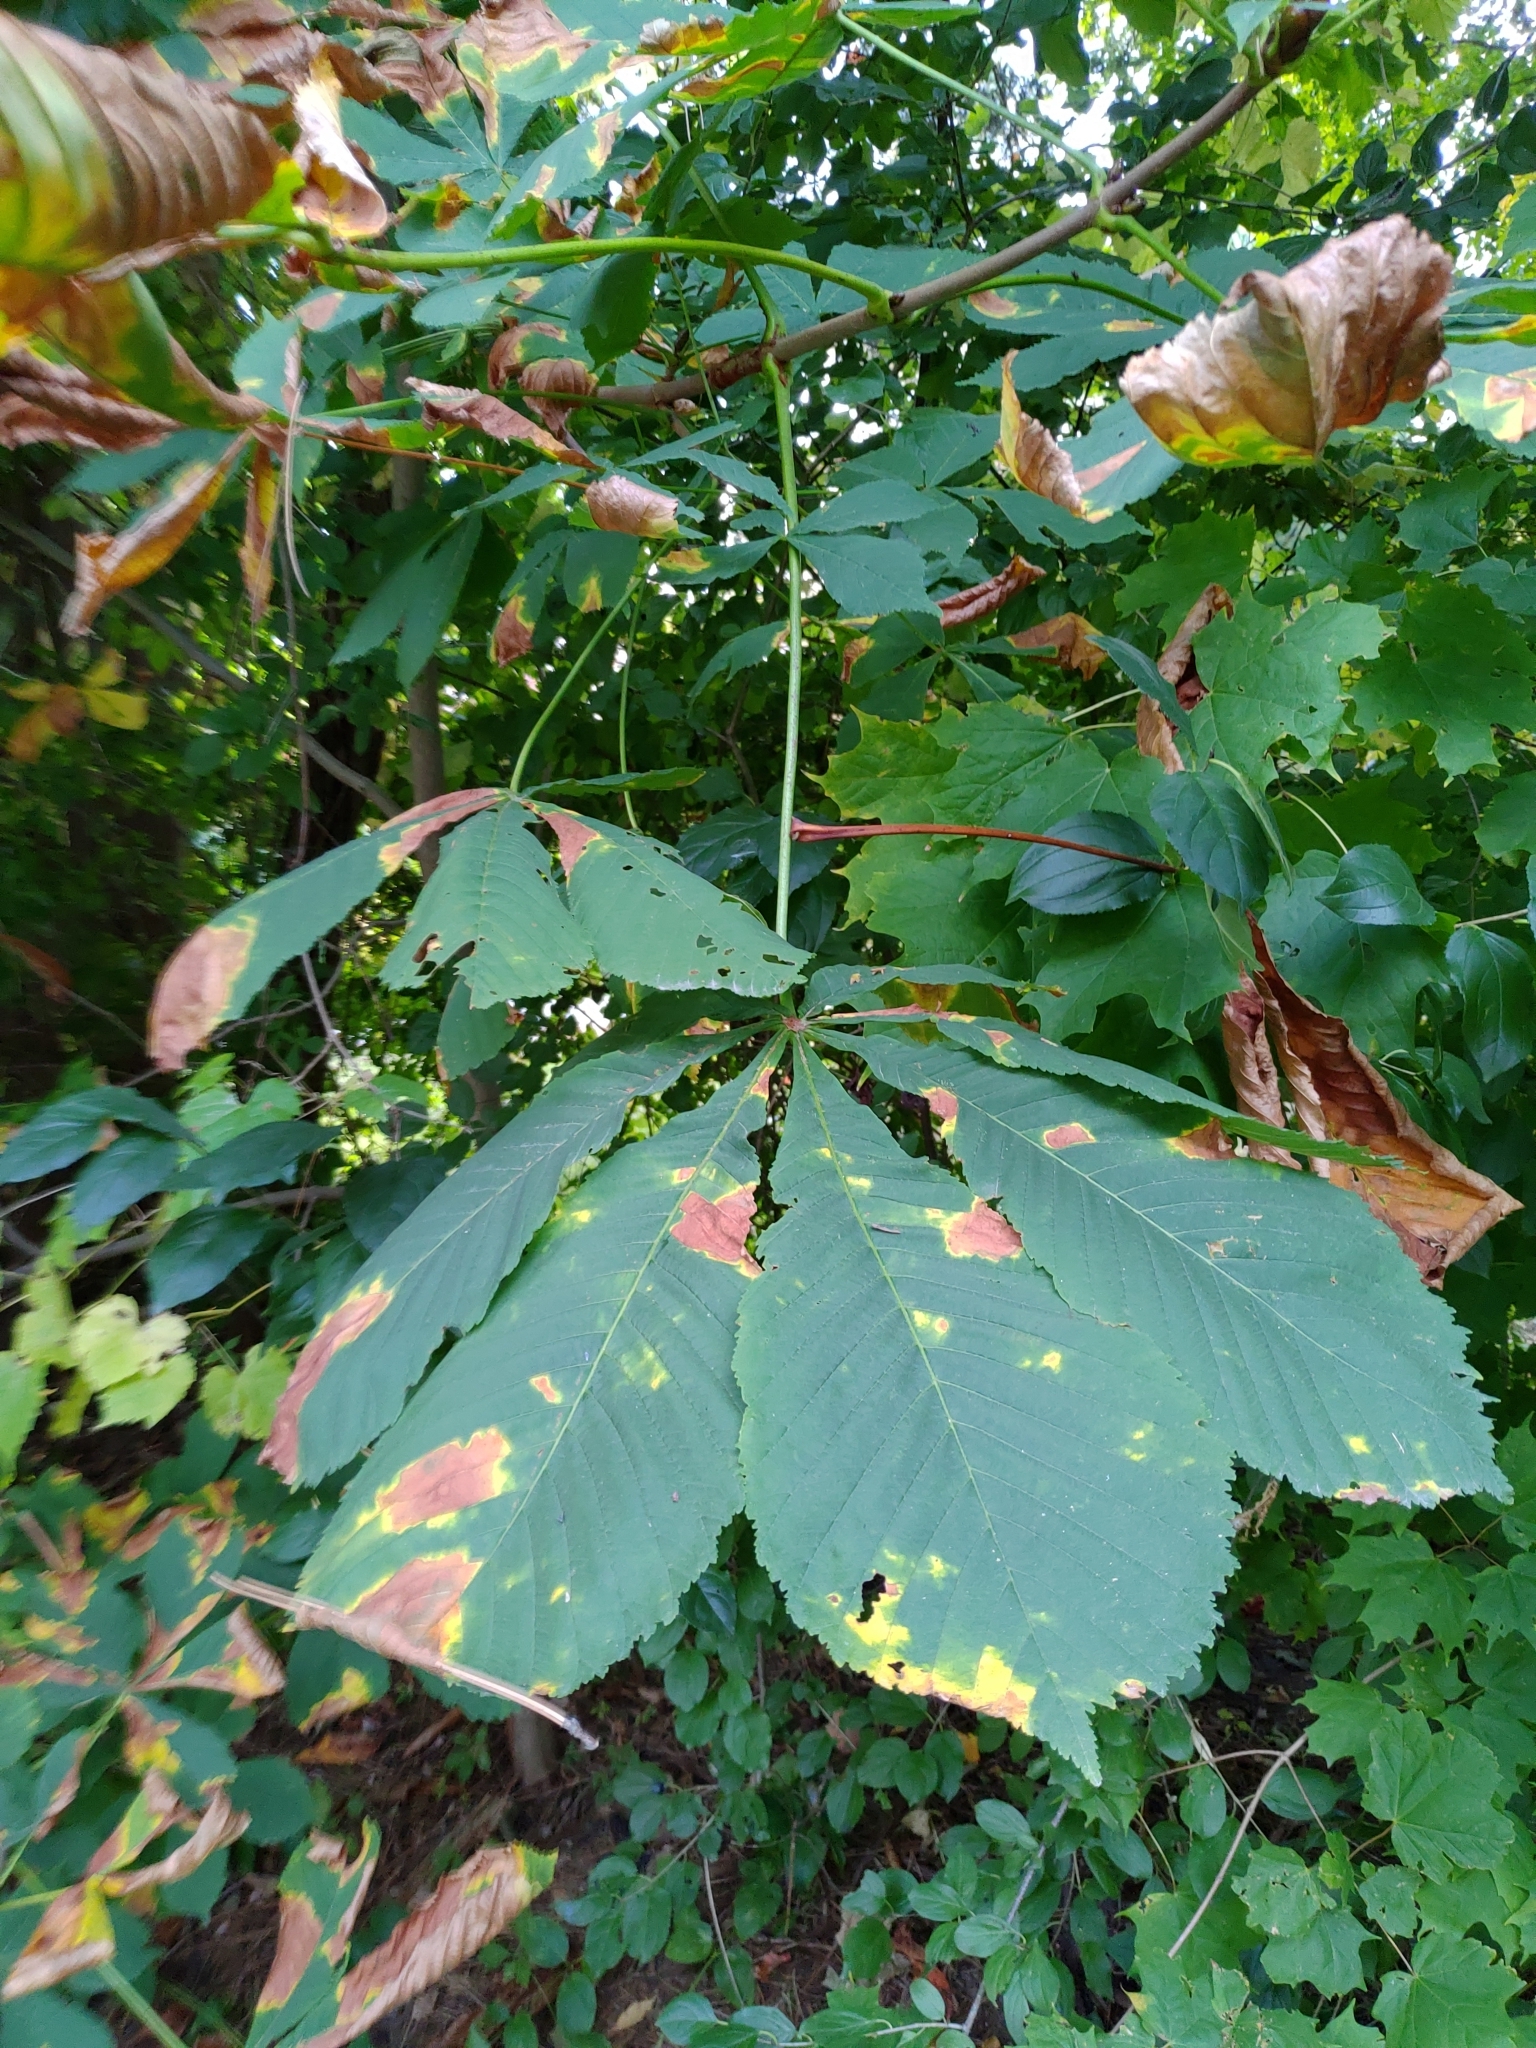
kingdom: Plantae
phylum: Tracheophyta
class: Magnoliopsida
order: Sapindales
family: Sapindaceae
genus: Aesculus
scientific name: Aesculus hippocastanum
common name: Horse-chestnut
